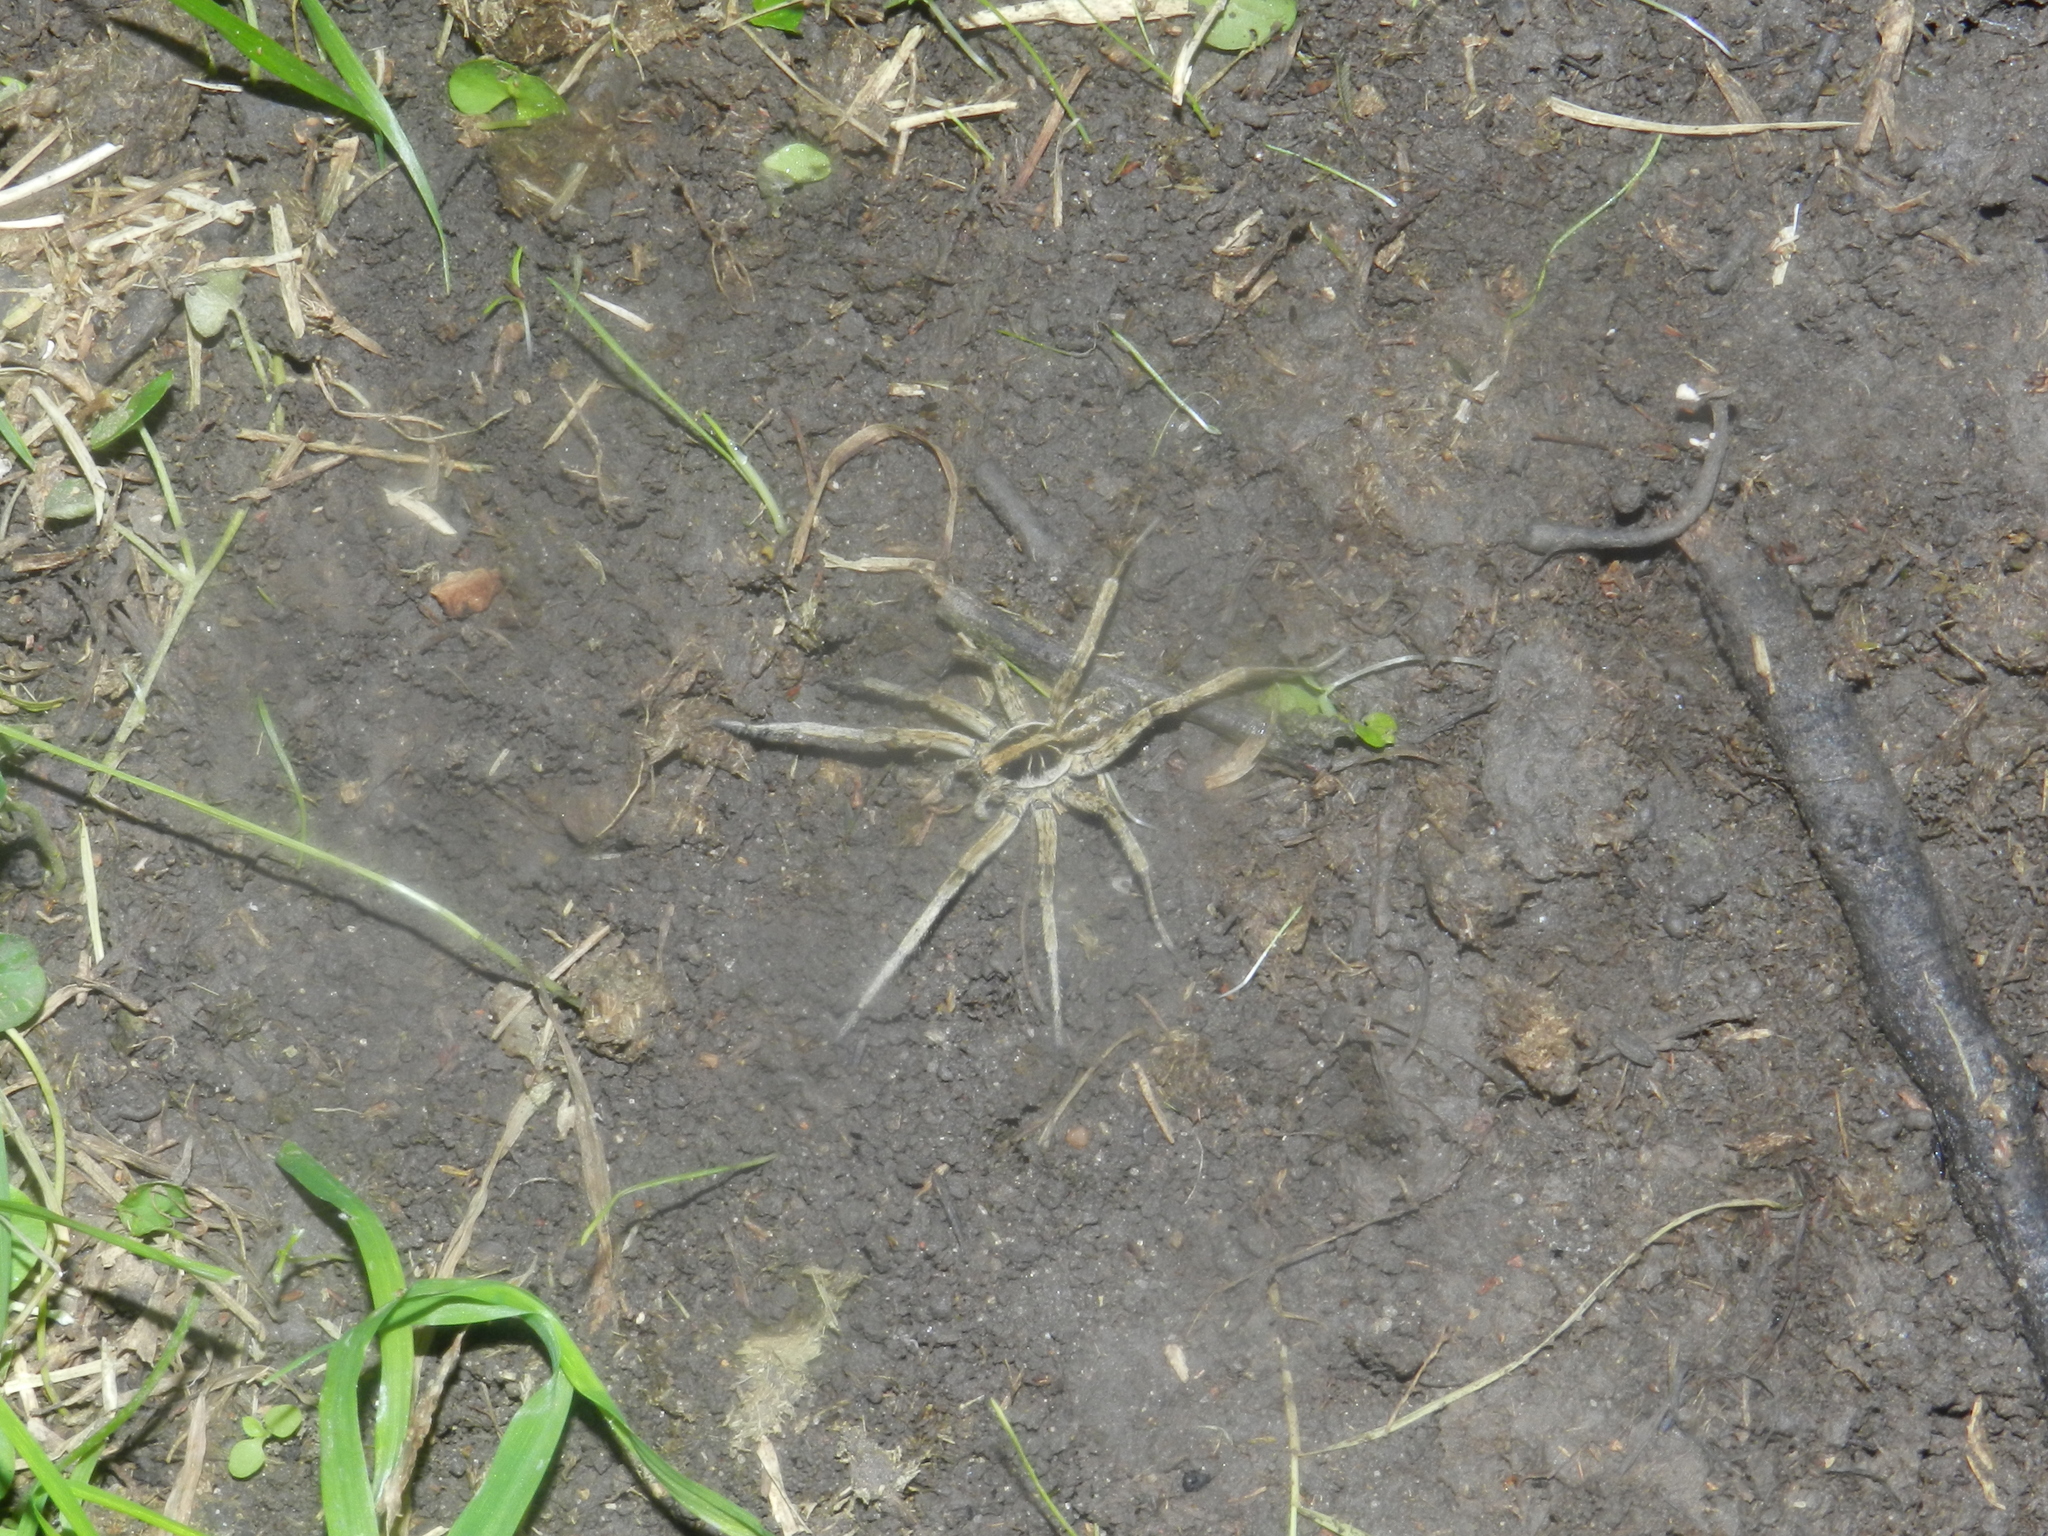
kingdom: Animalia
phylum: Arthropoda
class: Arachnida
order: Araneae
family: Lycosidae
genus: Schizocosa
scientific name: Schizocosa malitiosa
